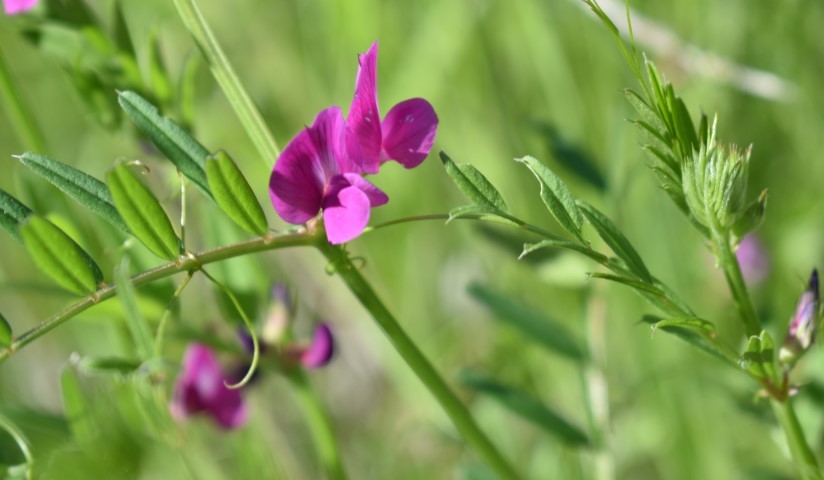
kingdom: Plantae
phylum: Tracheophyta
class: Magnoliopsida
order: Fabales
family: Fabaceae
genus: Vicia
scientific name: Vicia sativa
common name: Garden vetch
